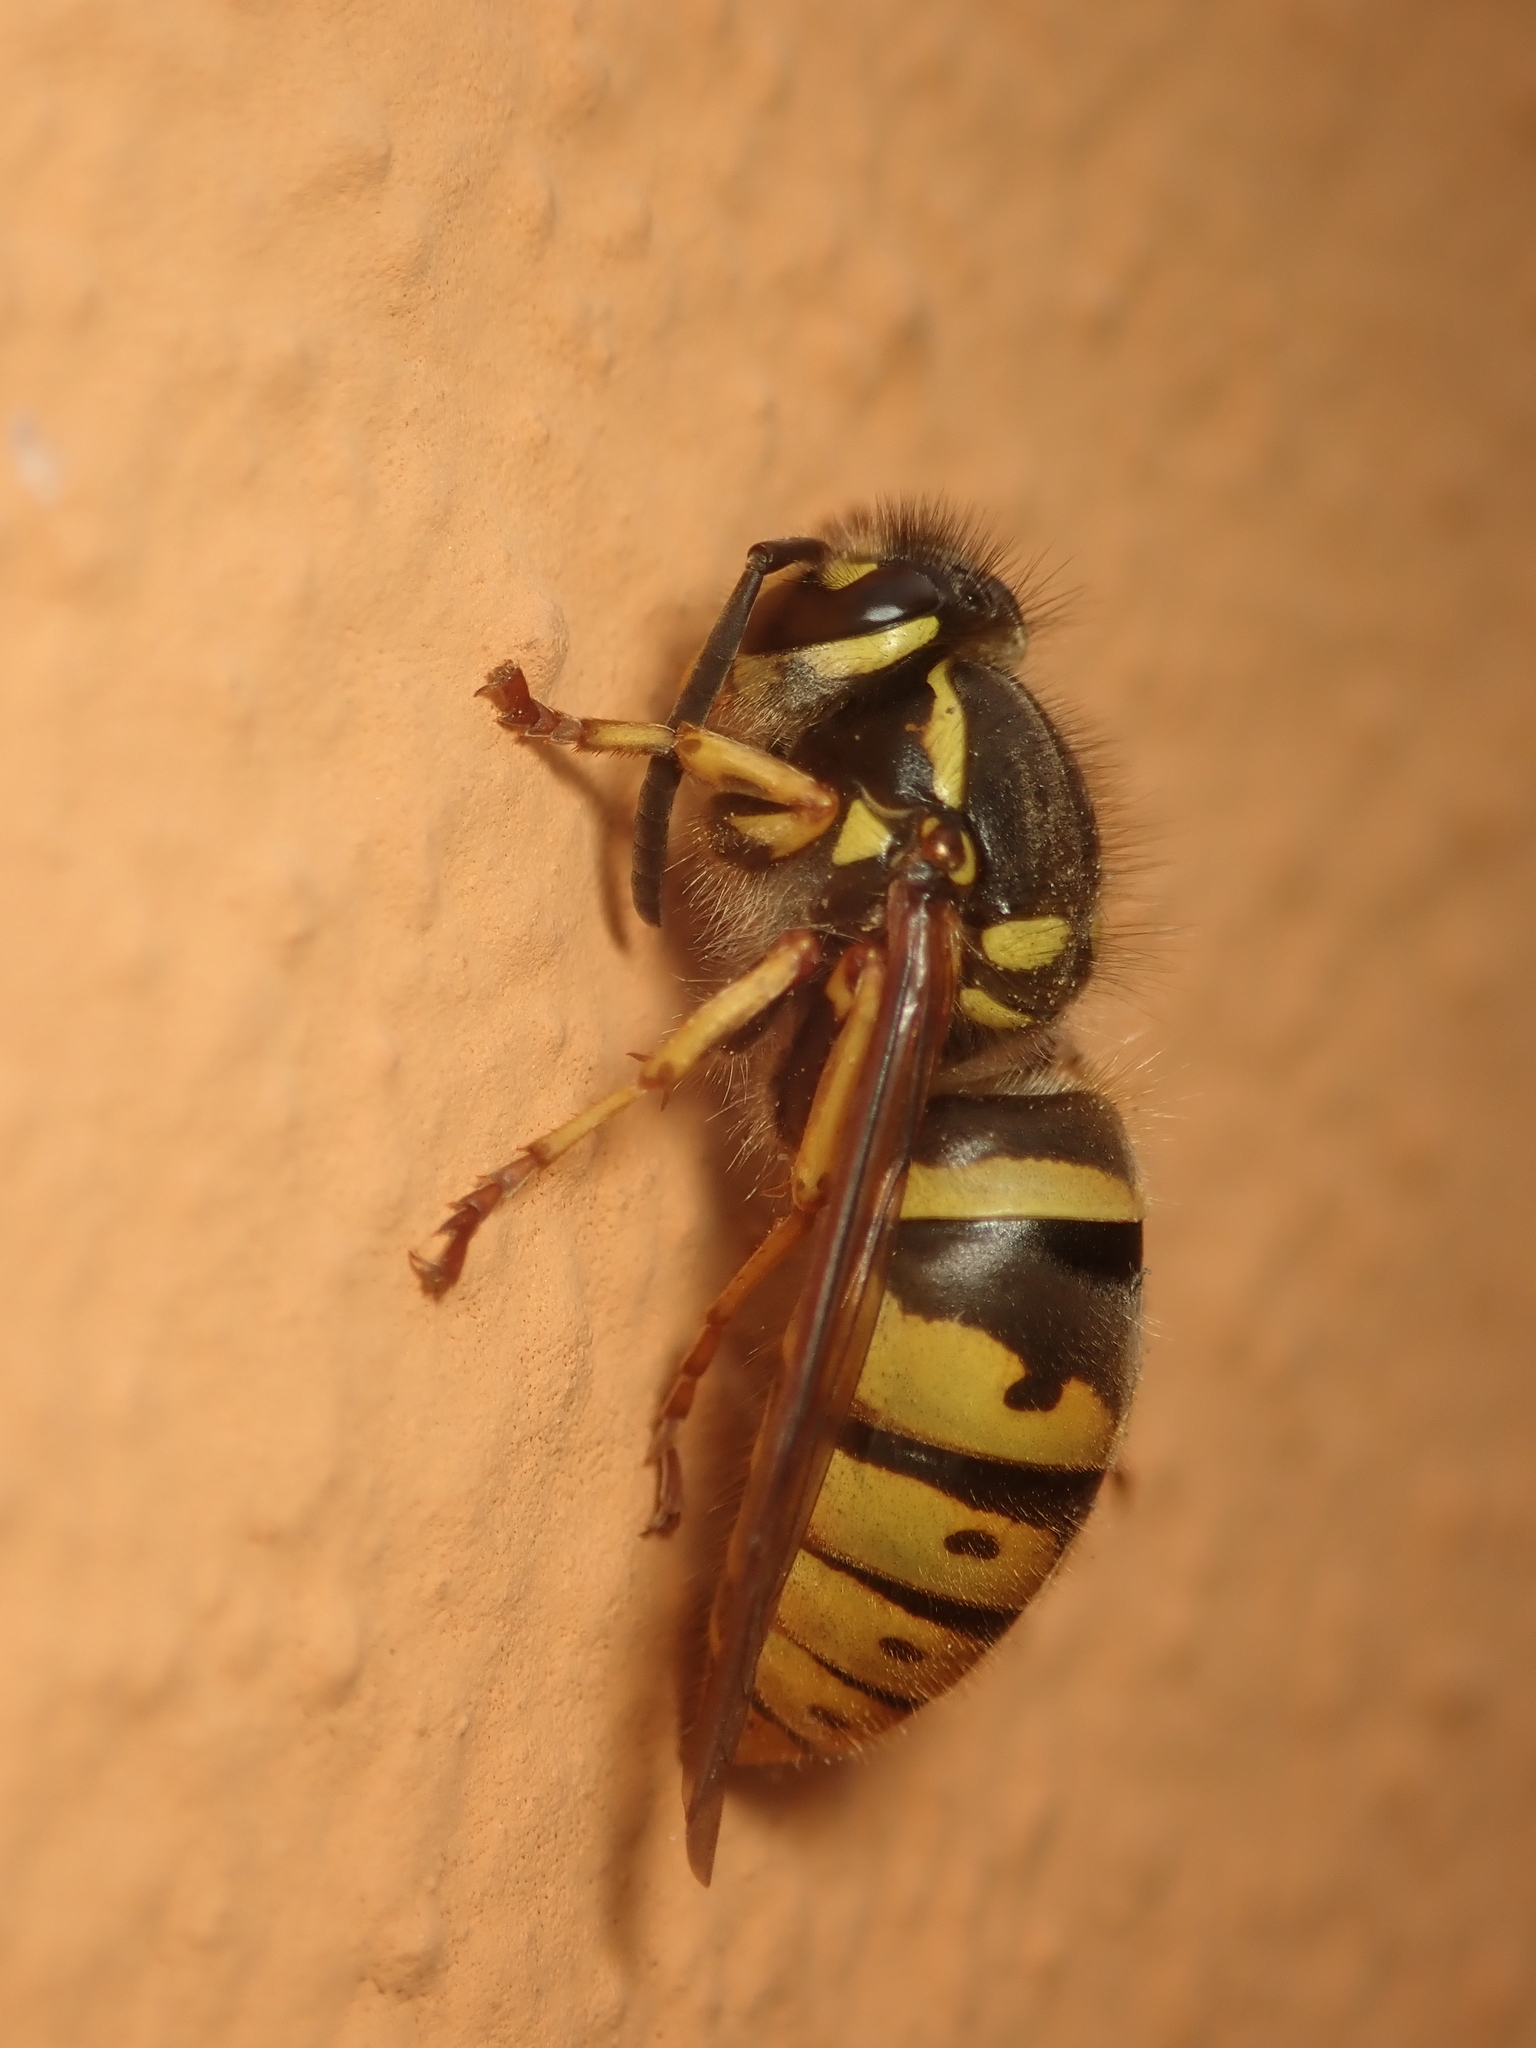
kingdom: Animalia
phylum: Arthropoda
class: Insecta
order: Hymenoptera
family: Vespidae
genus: Vespula
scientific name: Vespula vulgaris
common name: Common wasp
